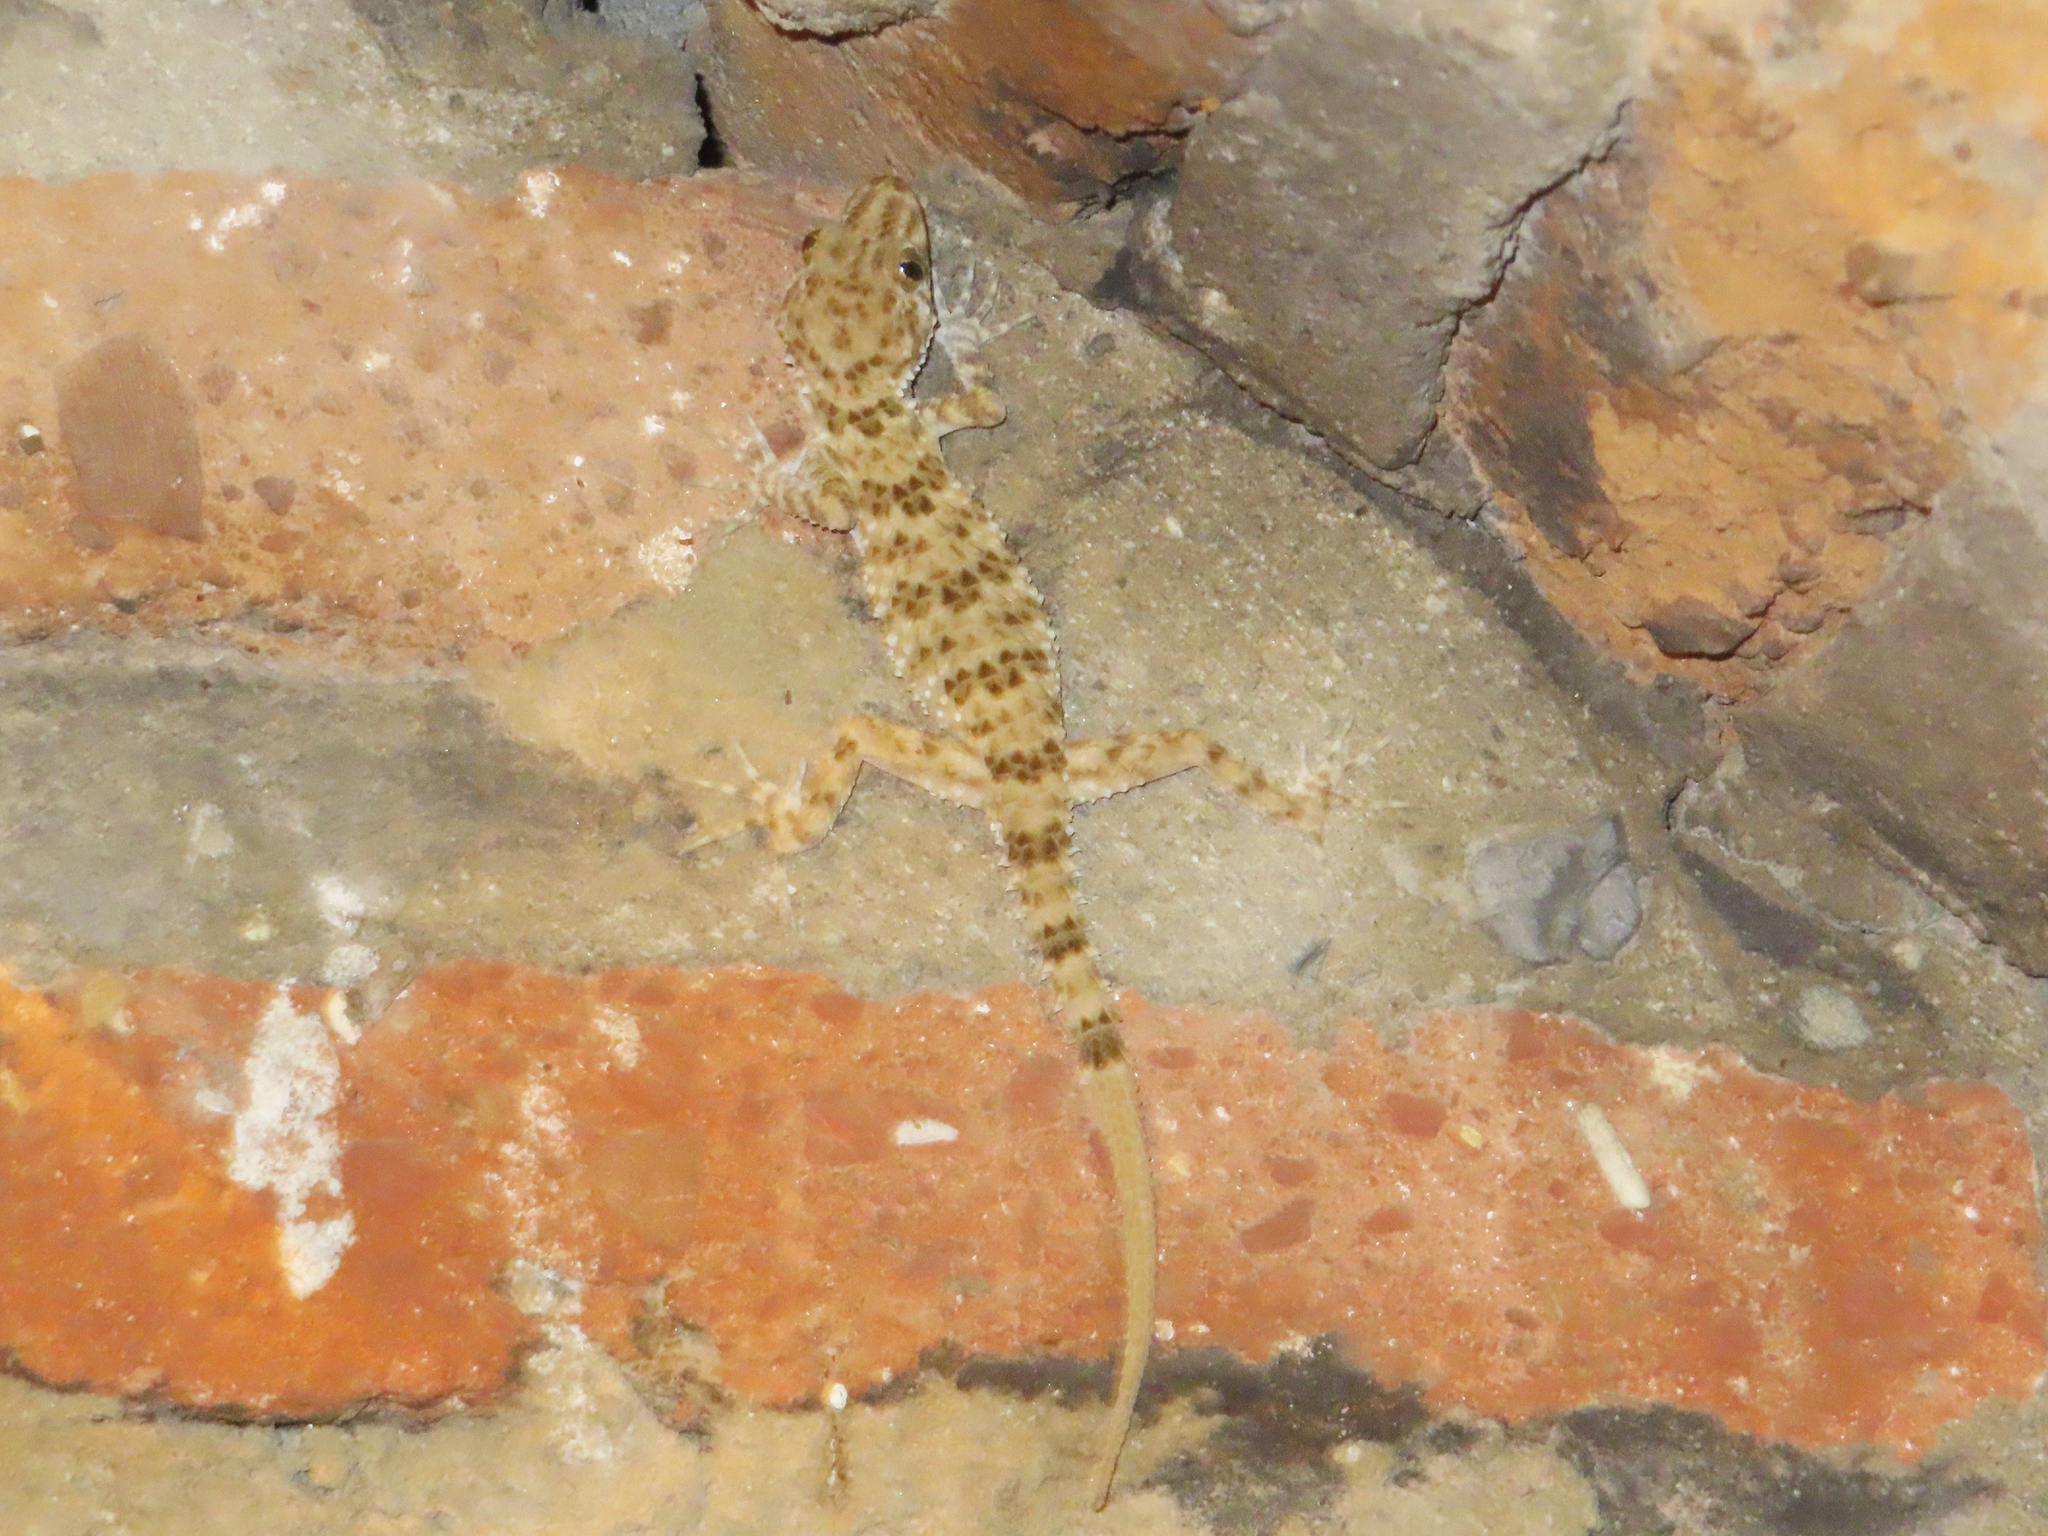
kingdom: Animalia
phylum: Chordata
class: Squamata
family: Gekkonidae
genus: Tenuidactylus
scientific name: Tenuidactylus caspius
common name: Caspian bent-toed gecko
